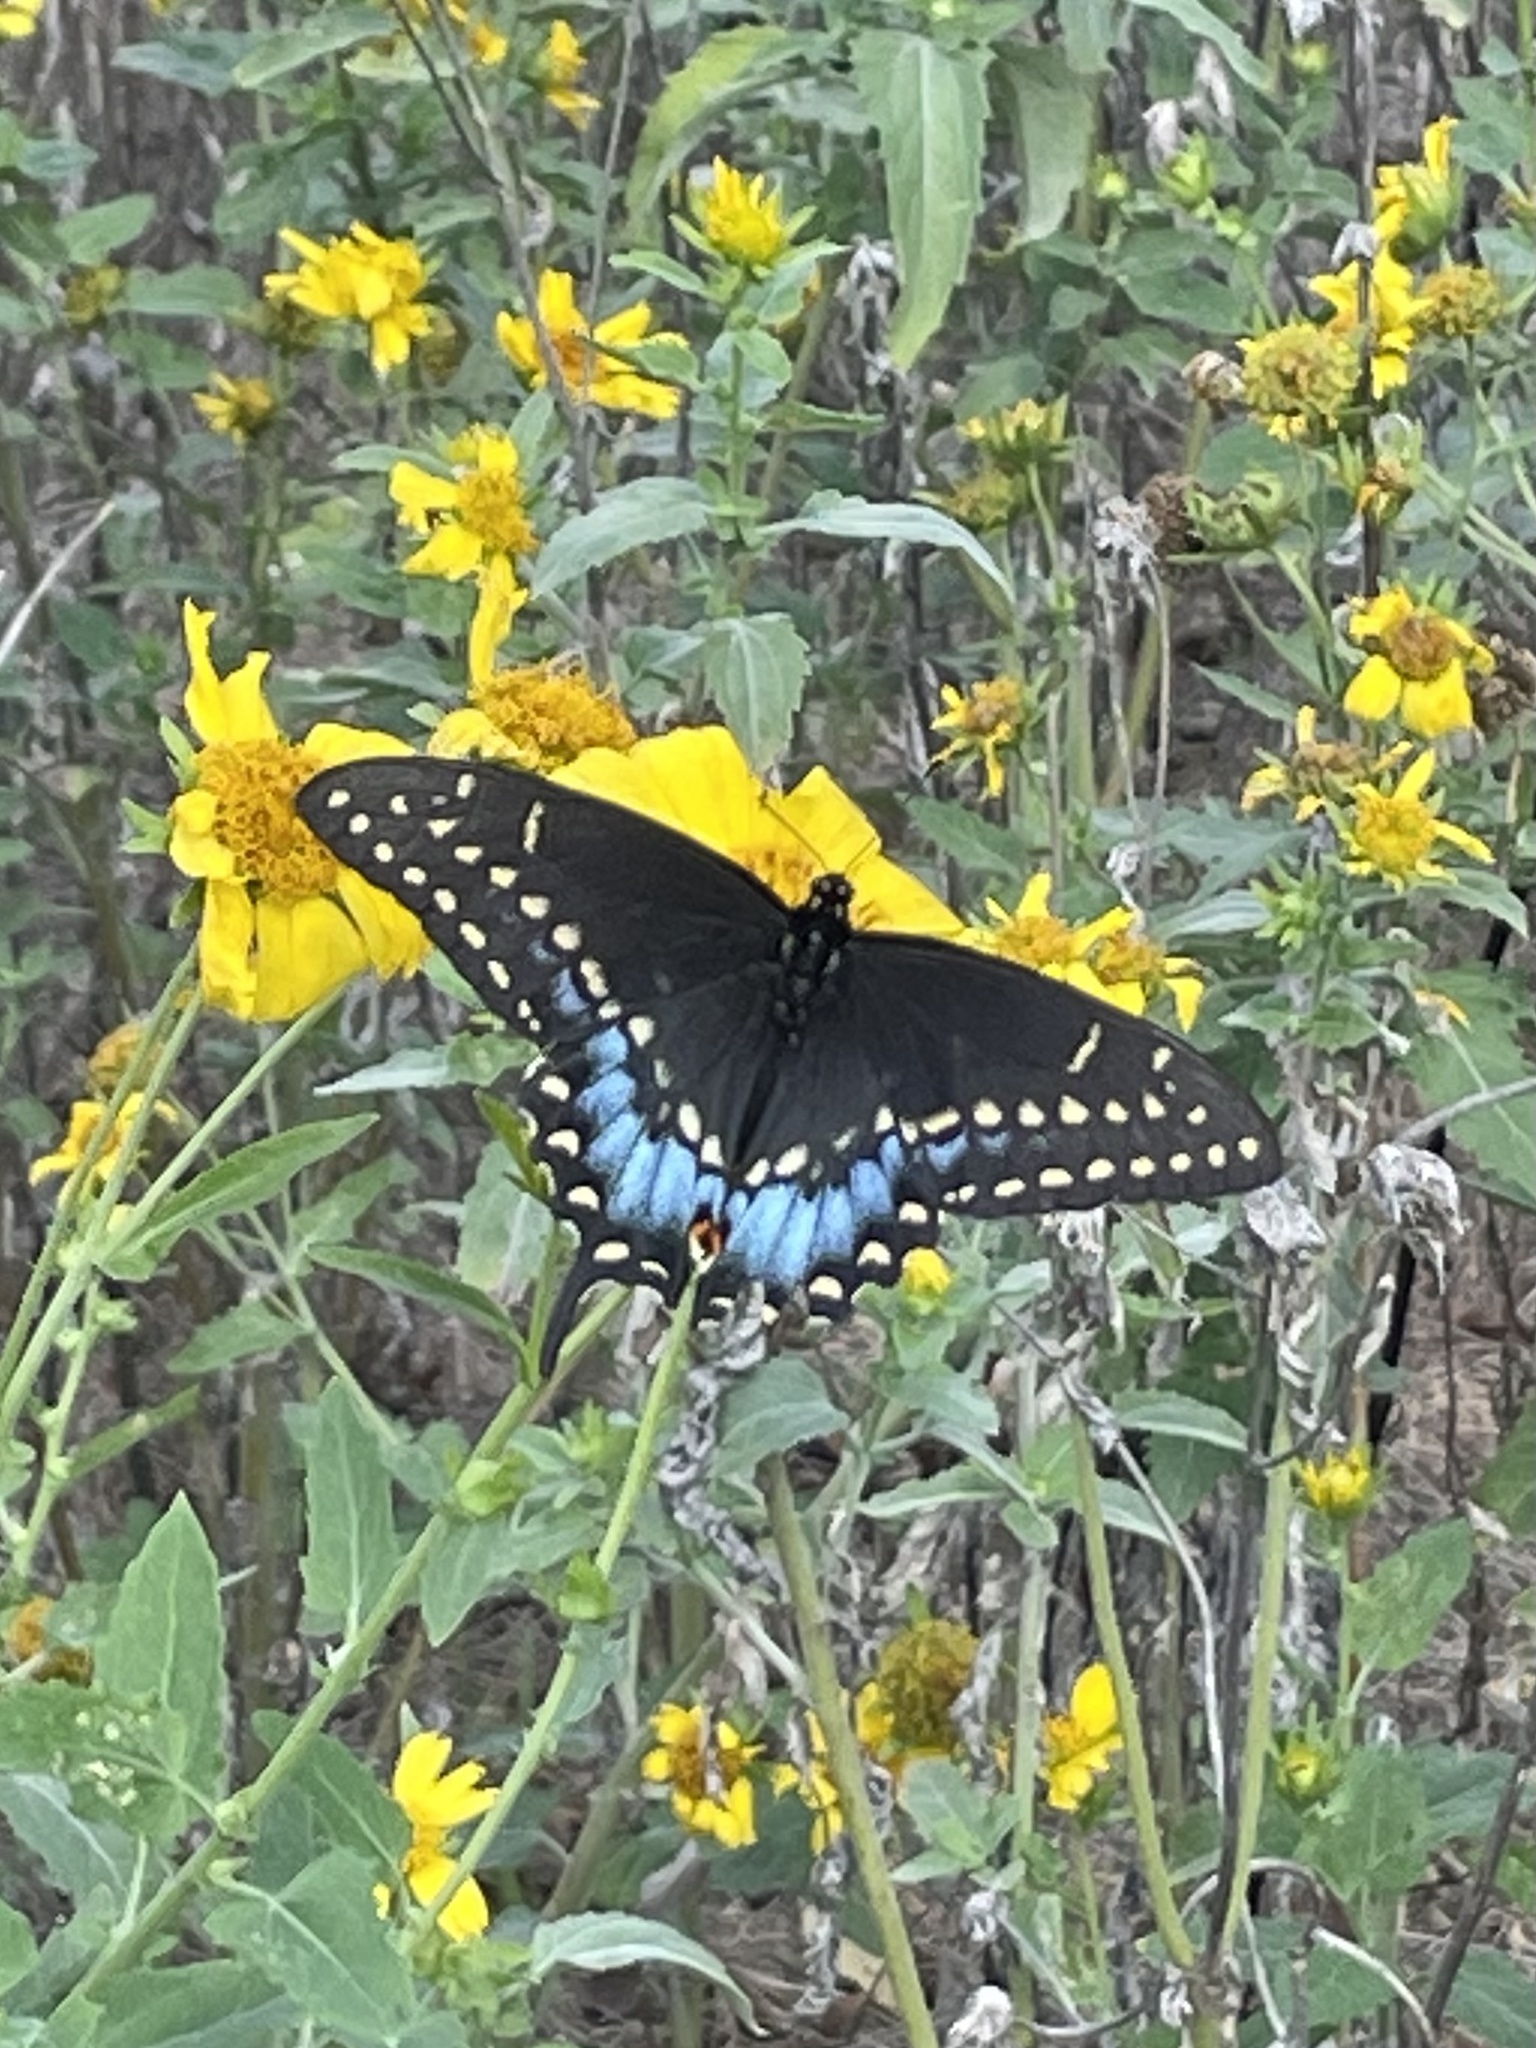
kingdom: Animalia
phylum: Arthropoda
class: Insecta
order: Lepidoptera
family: Papilionidae
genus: Papilio
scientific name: Papilio polyxenes
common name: Black swallowtail
